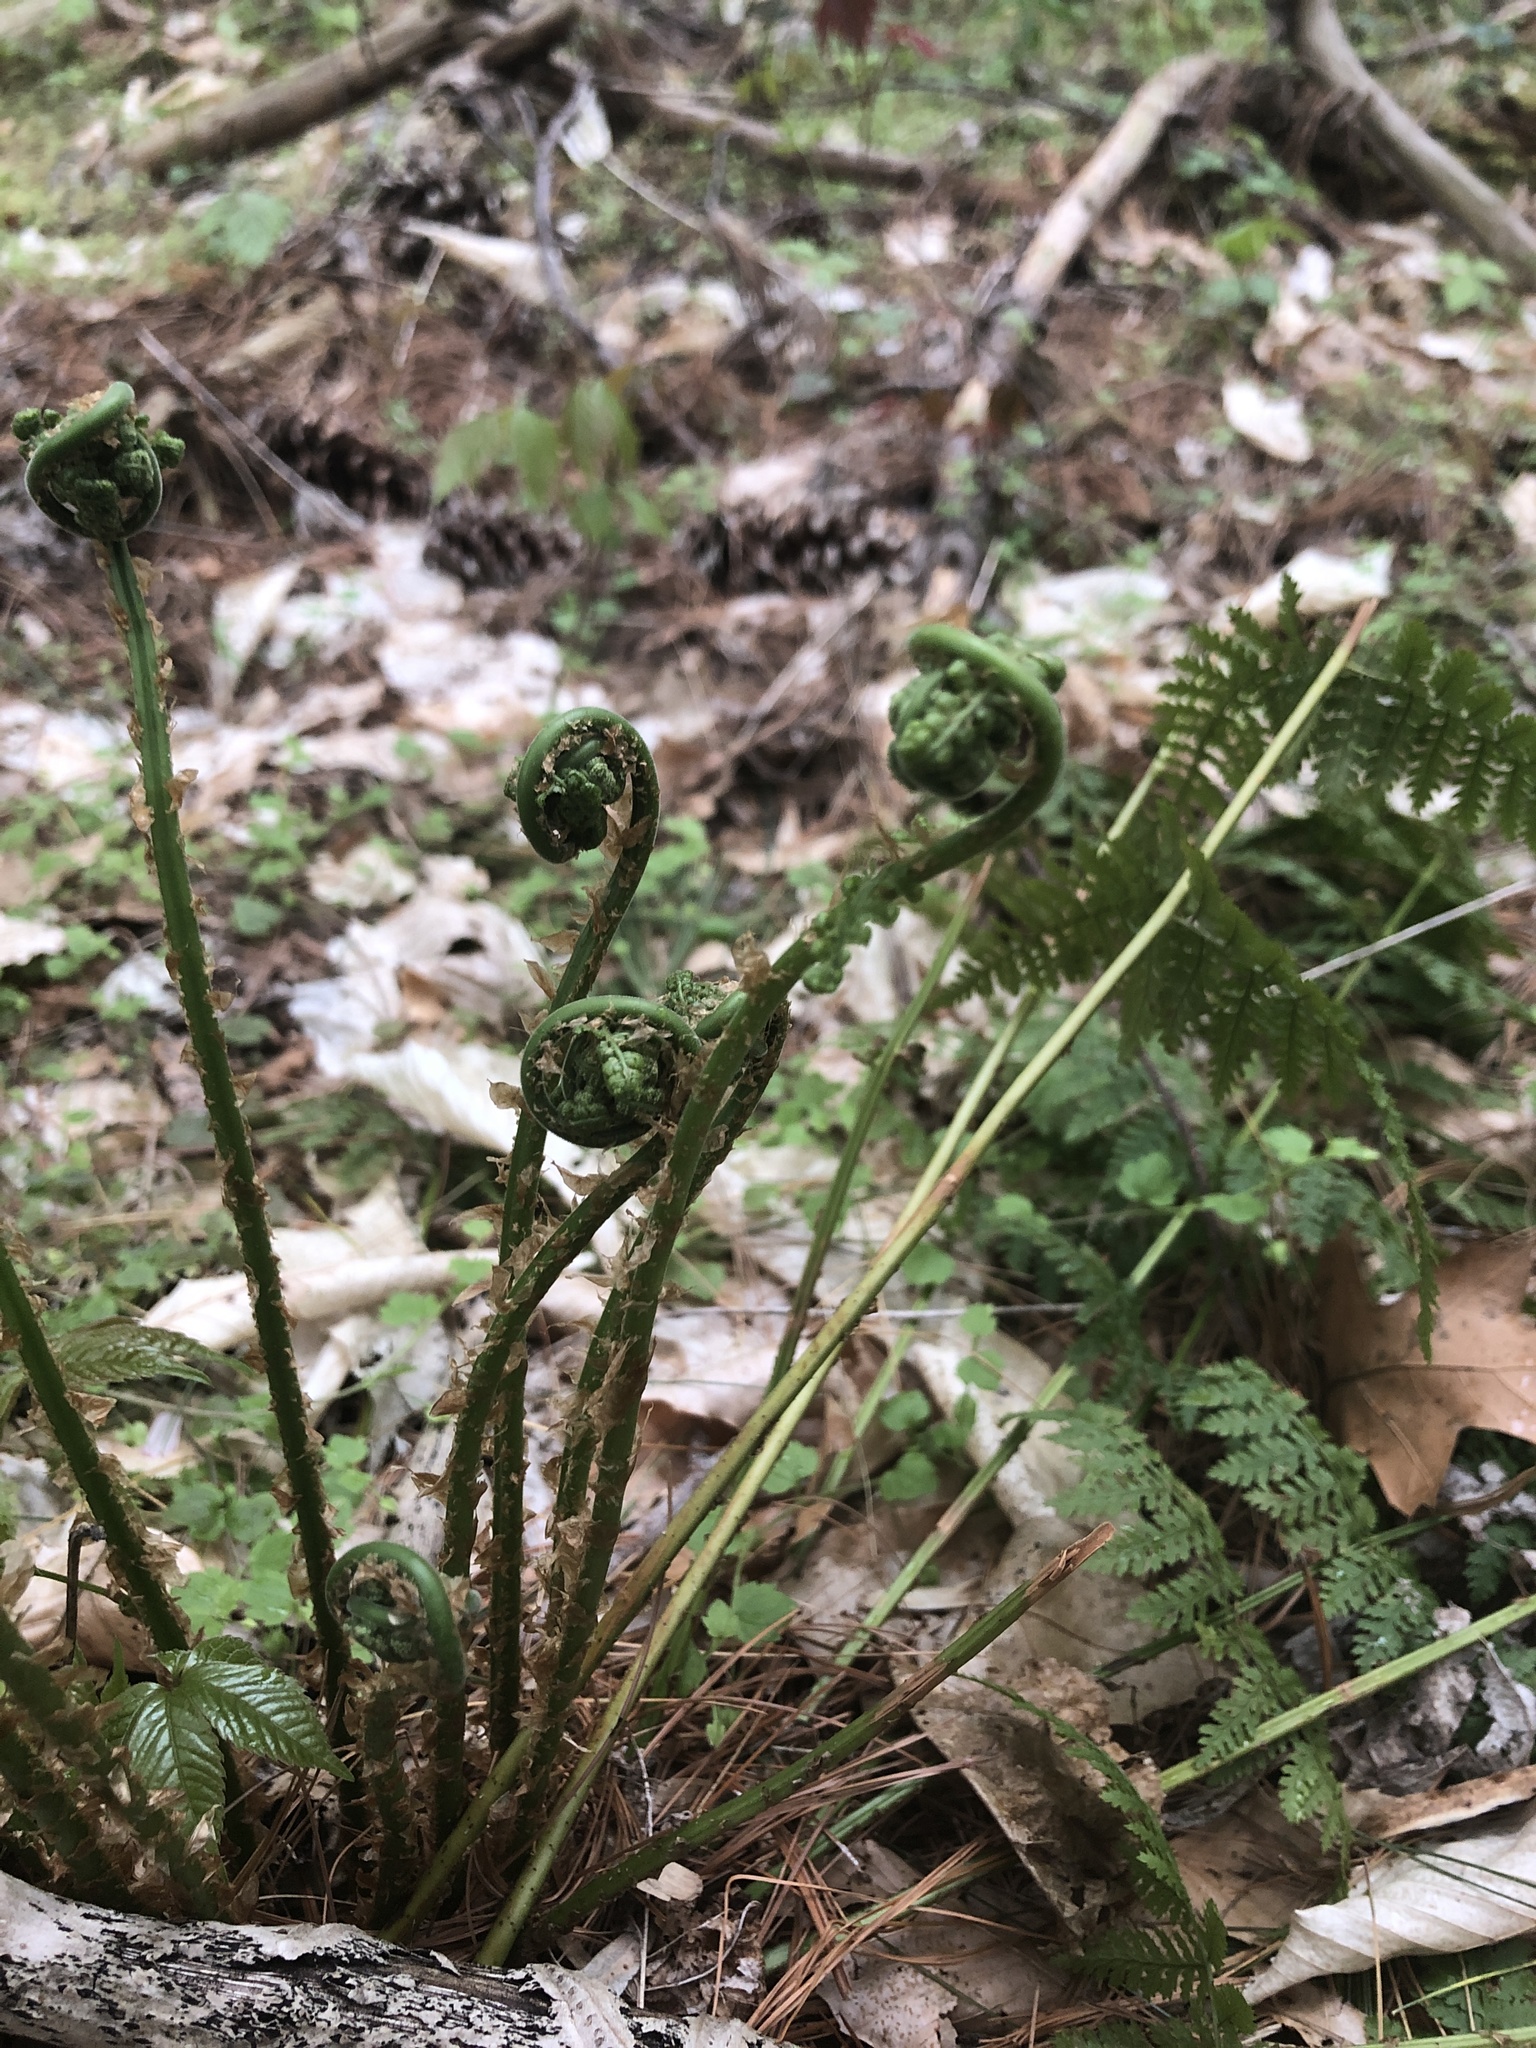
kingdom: Plantae
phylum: Tracheophyta
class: Polypodiopsida
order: Polypodiales
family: Dryopteridaceae
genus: Dryopteris
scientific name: Dryopteris intermedia
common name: Evergreen wood fern
